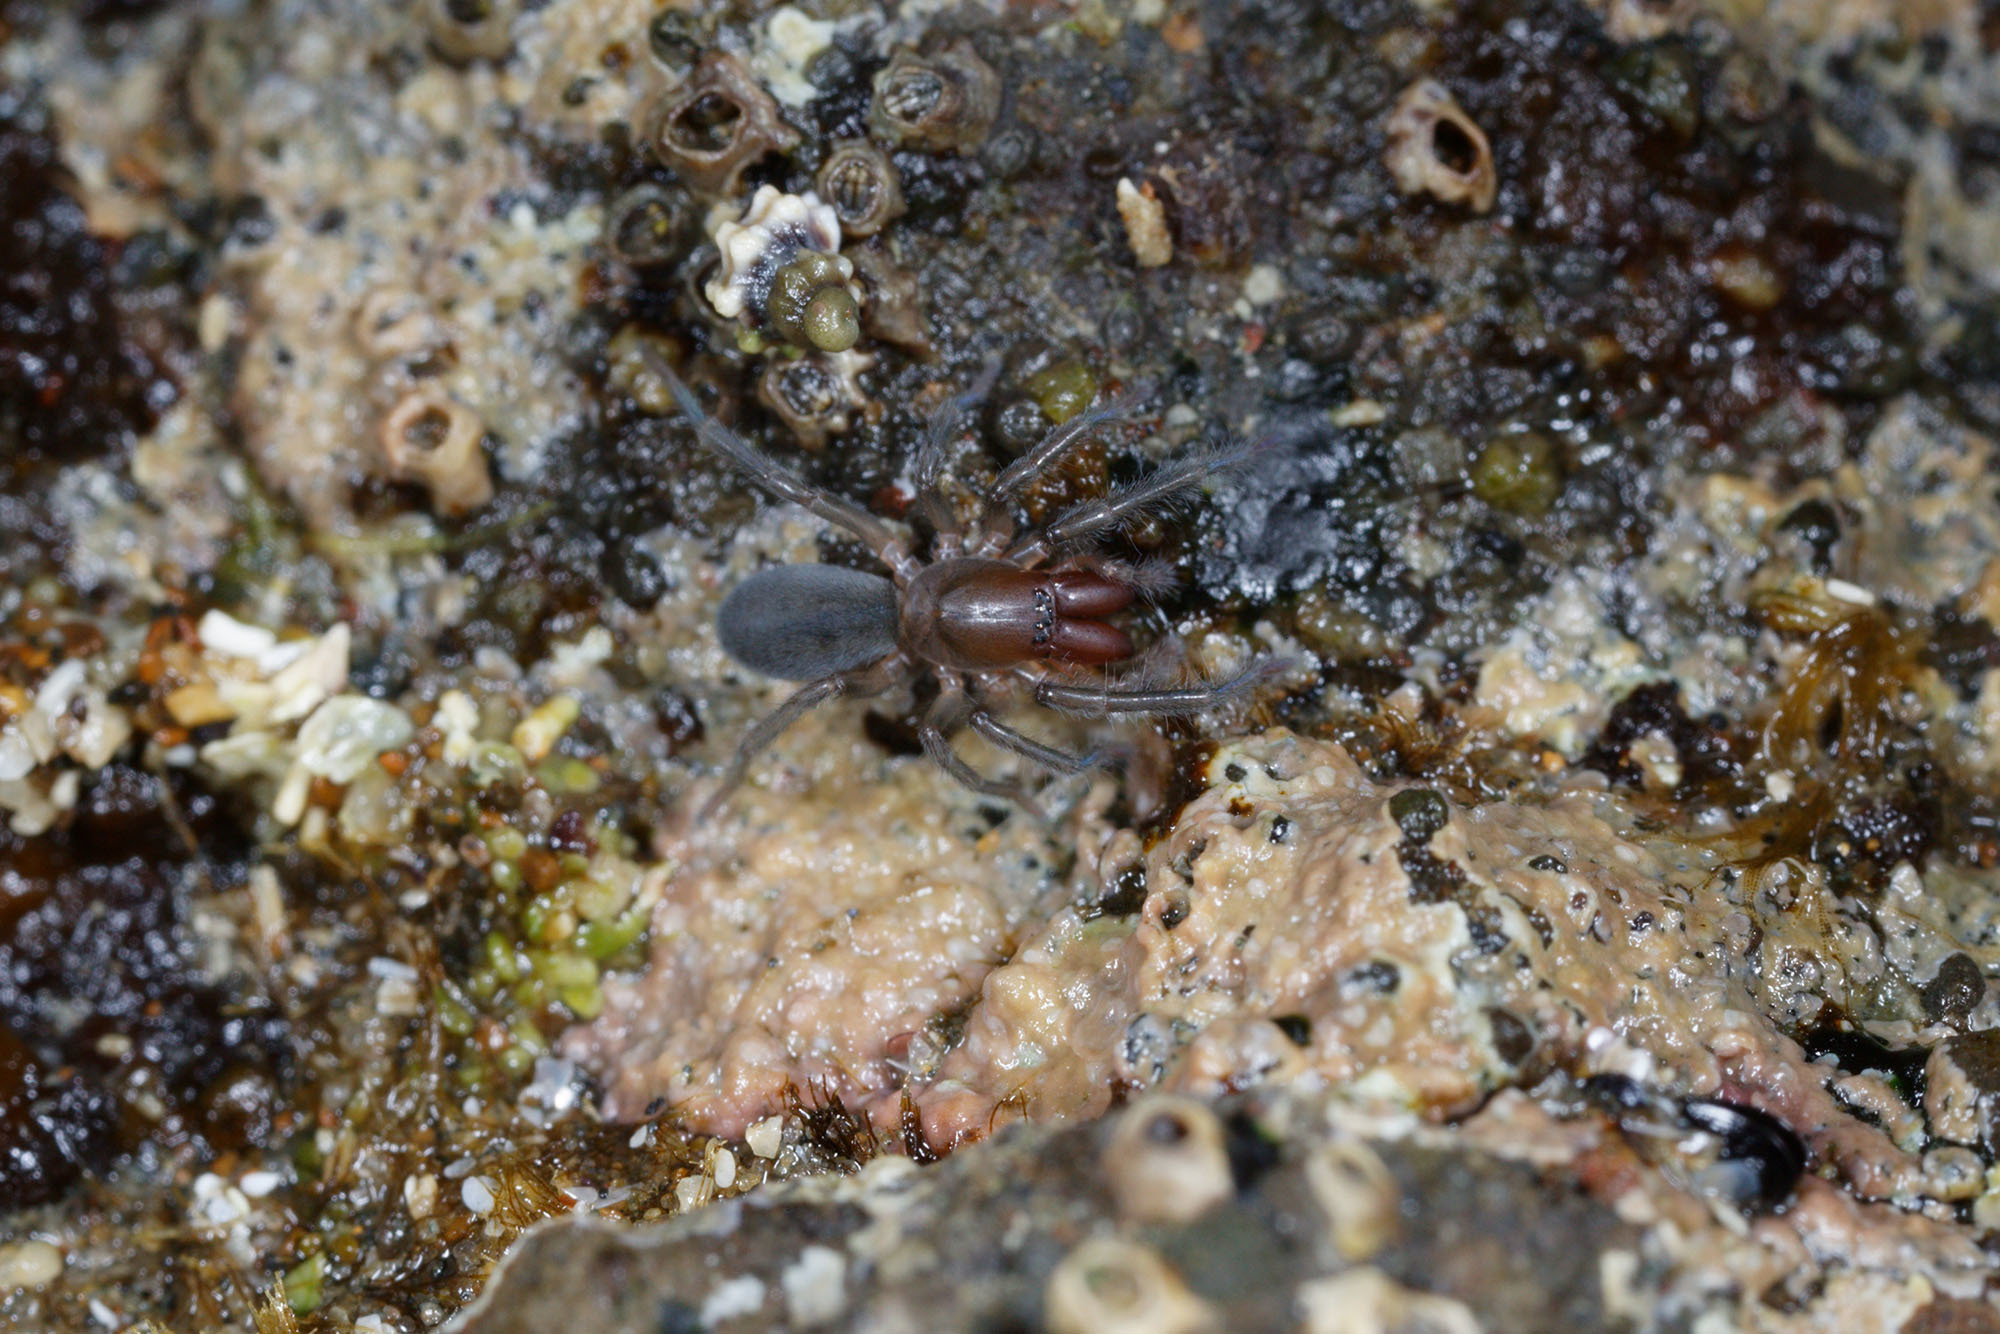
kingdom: Animalia
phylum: Arthropoda
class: Arachnida
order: Araneae
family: Desidae
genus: Desis
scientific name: Desis marina
